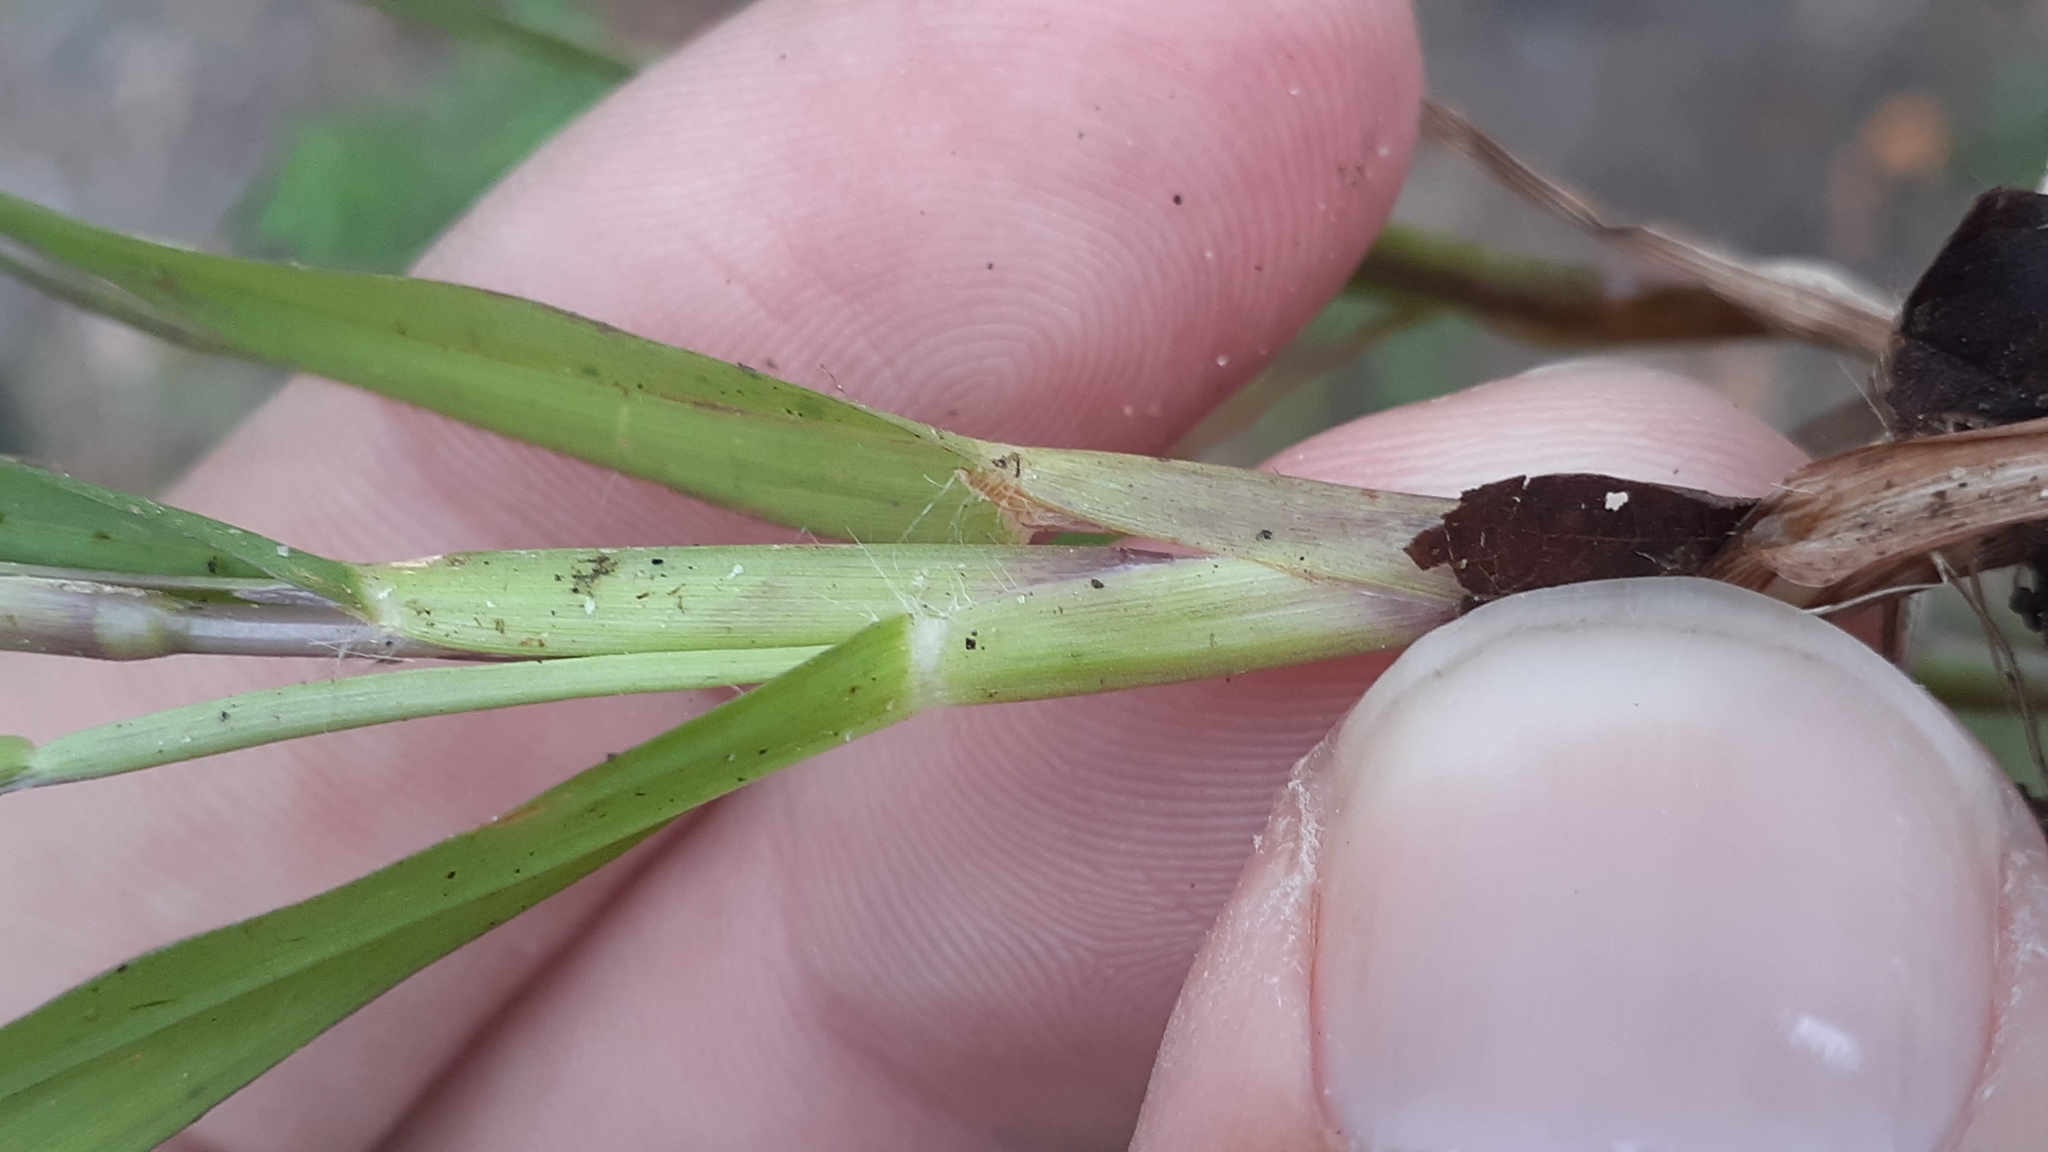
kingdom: Plantae
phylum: Tracheophyta
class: Liliopsida
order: Poales
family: Poaceae
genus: Digitaria
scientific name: Digitaria ischaemum
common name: Smooth crabgrass
